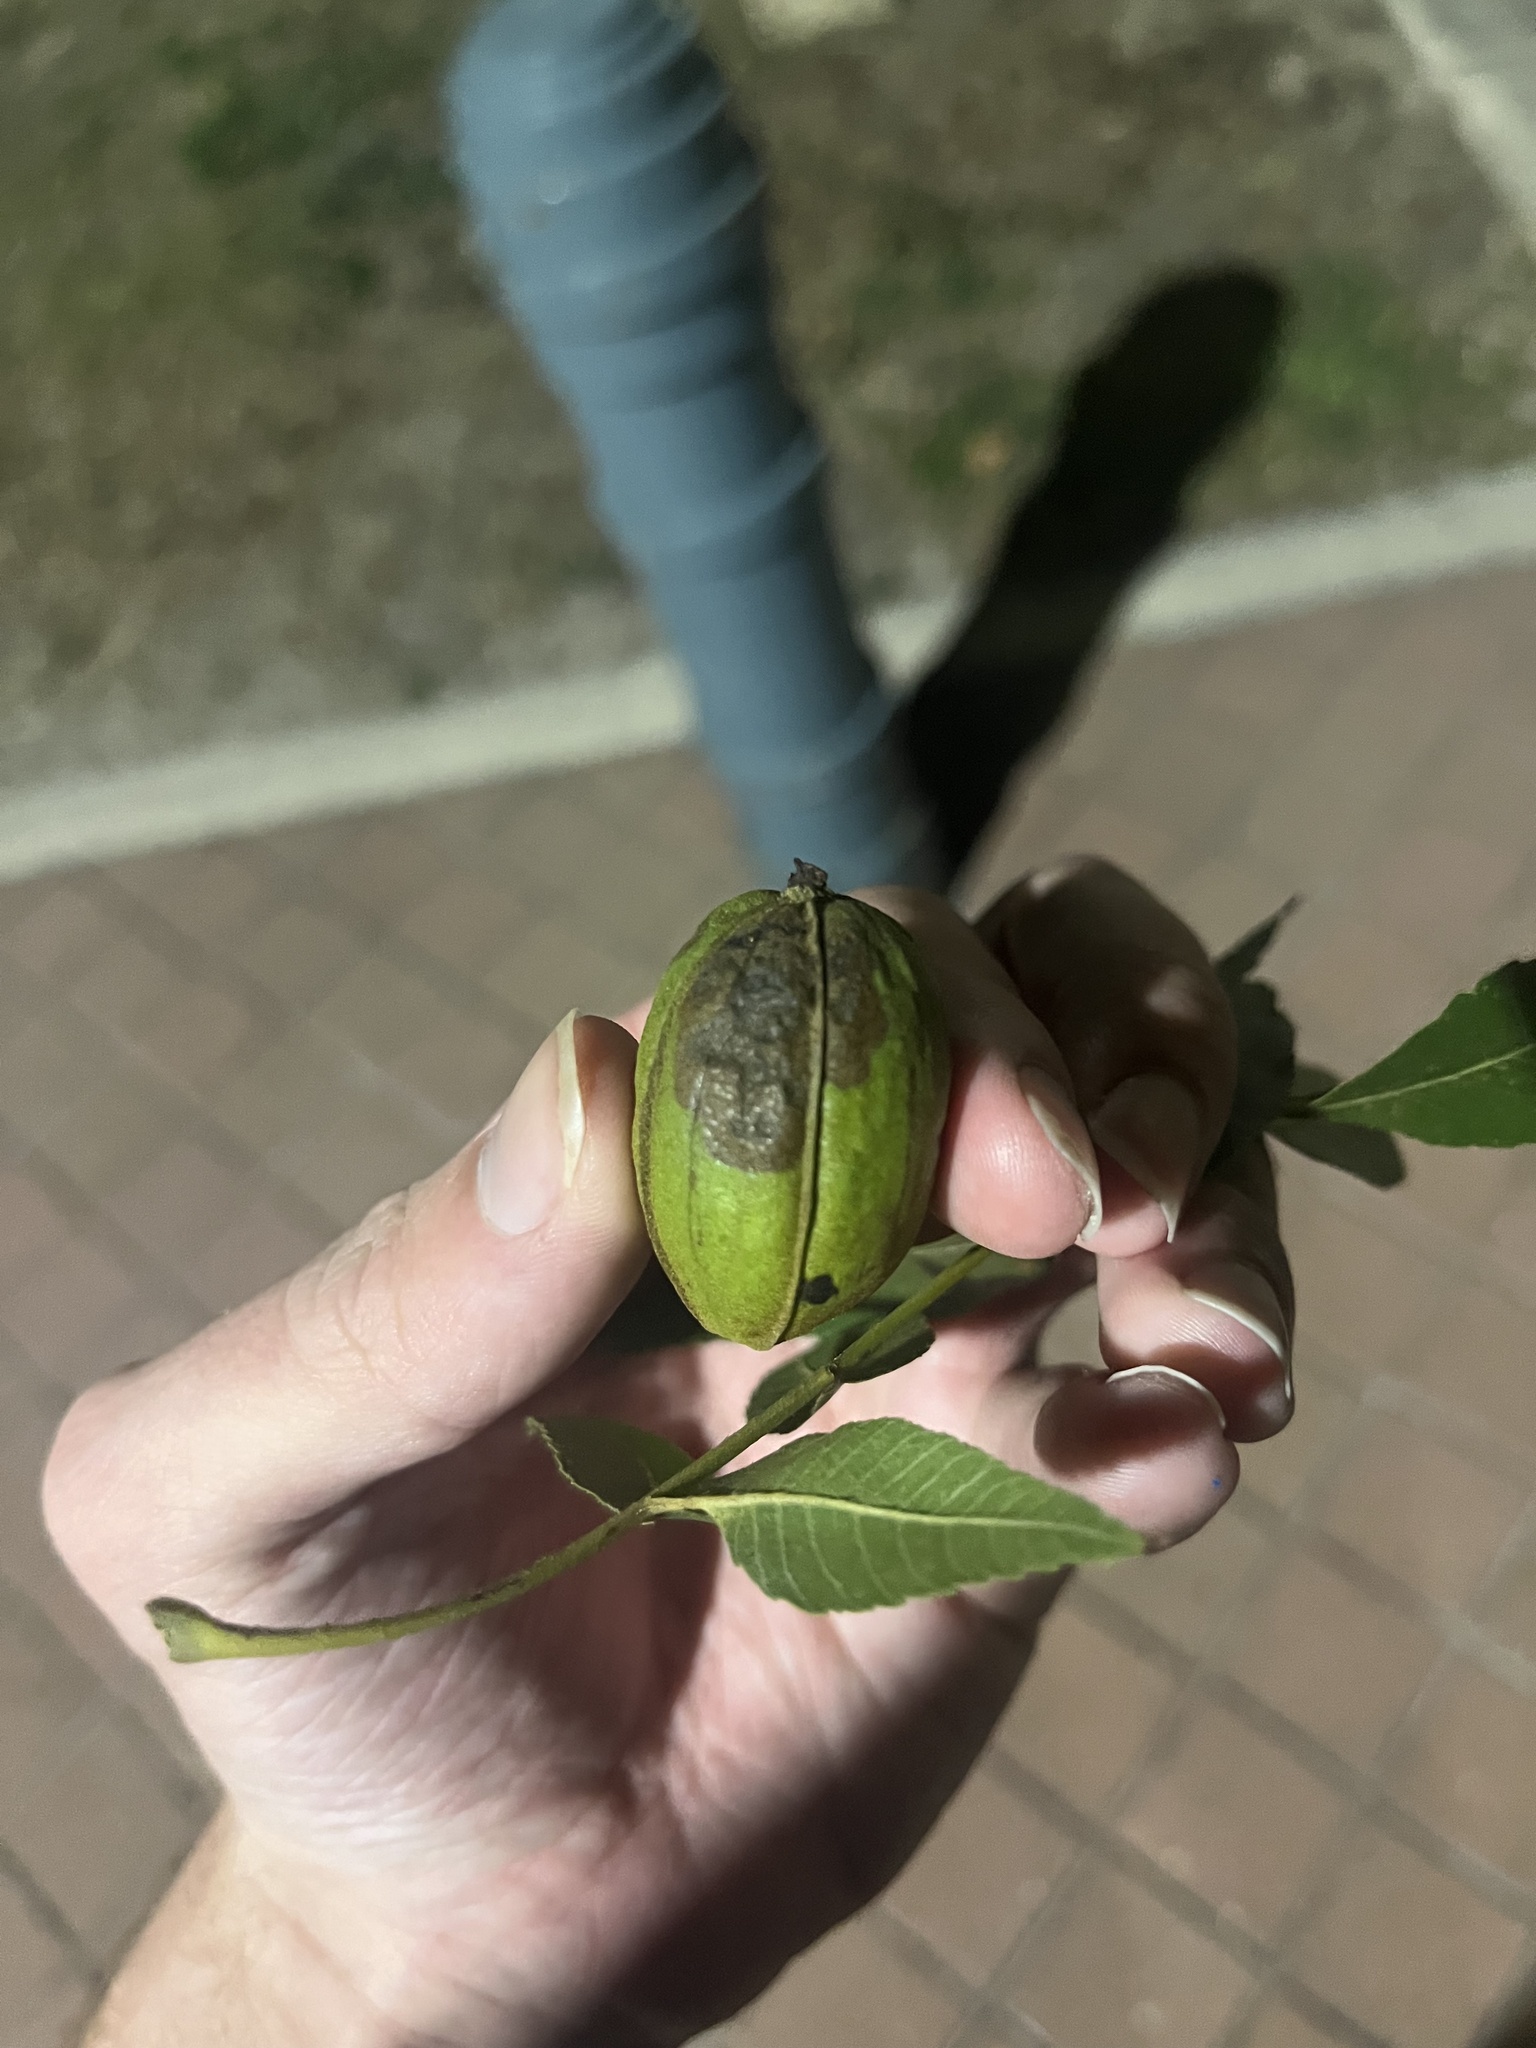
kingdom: Plantae
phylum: Tracheophyta
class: Magnoliopsida
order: Fagales
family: Juglandaceae
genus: Carya
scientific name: Carya illinoinensis
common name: Pecan
